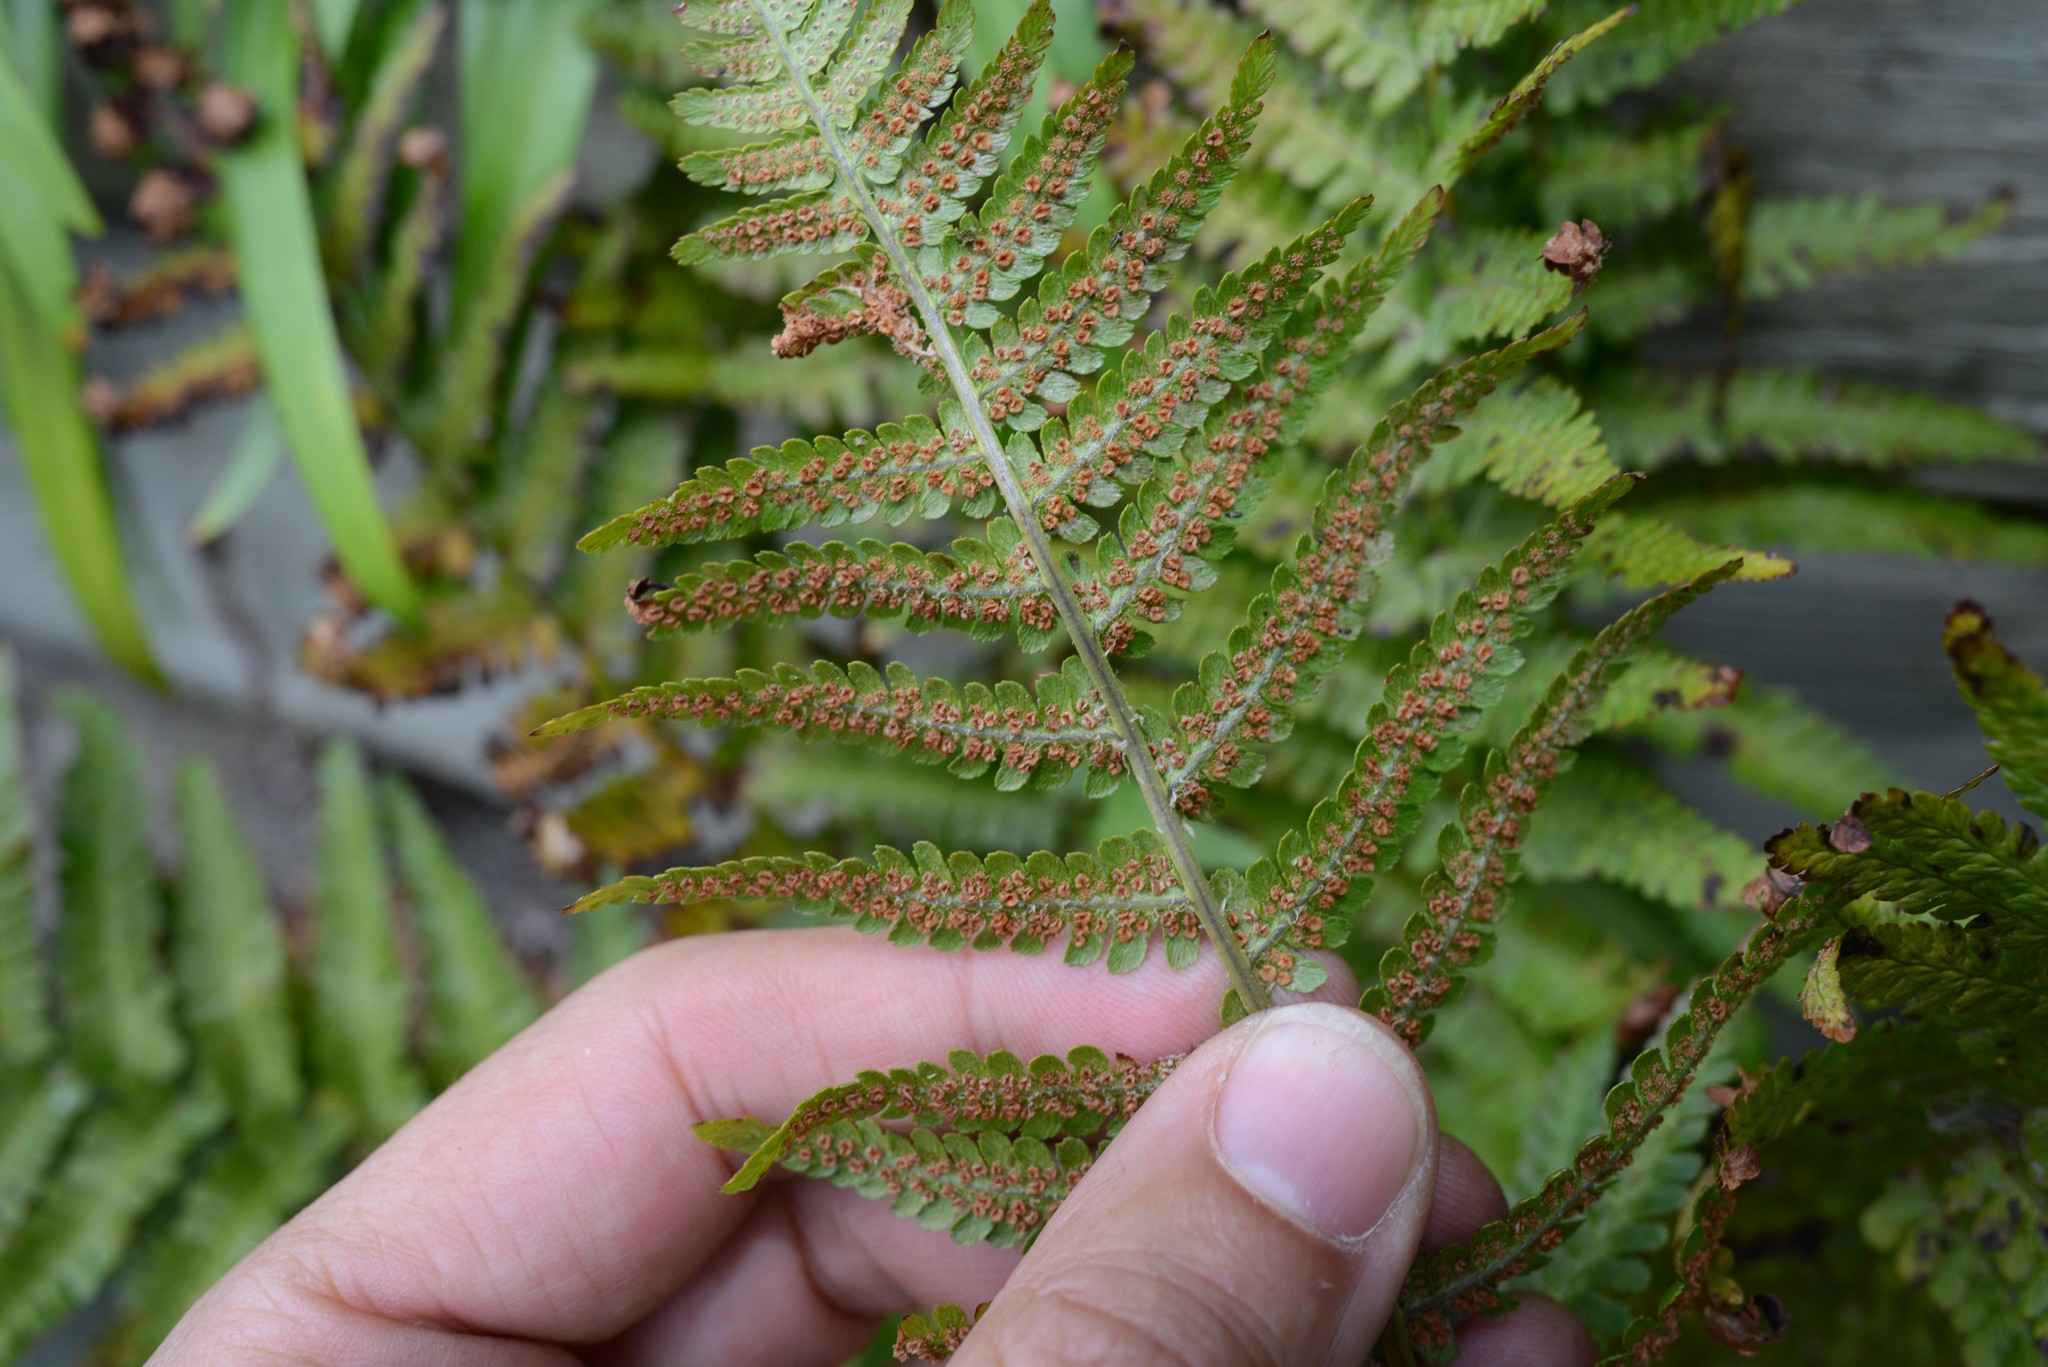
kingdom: Plantae
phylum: Tracheophyta
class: Polypodiopsida
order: Polypodiales
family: Dryopteridaceae
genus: Dryopteris
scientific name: Dryopteris filix-mas
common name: Male fern
